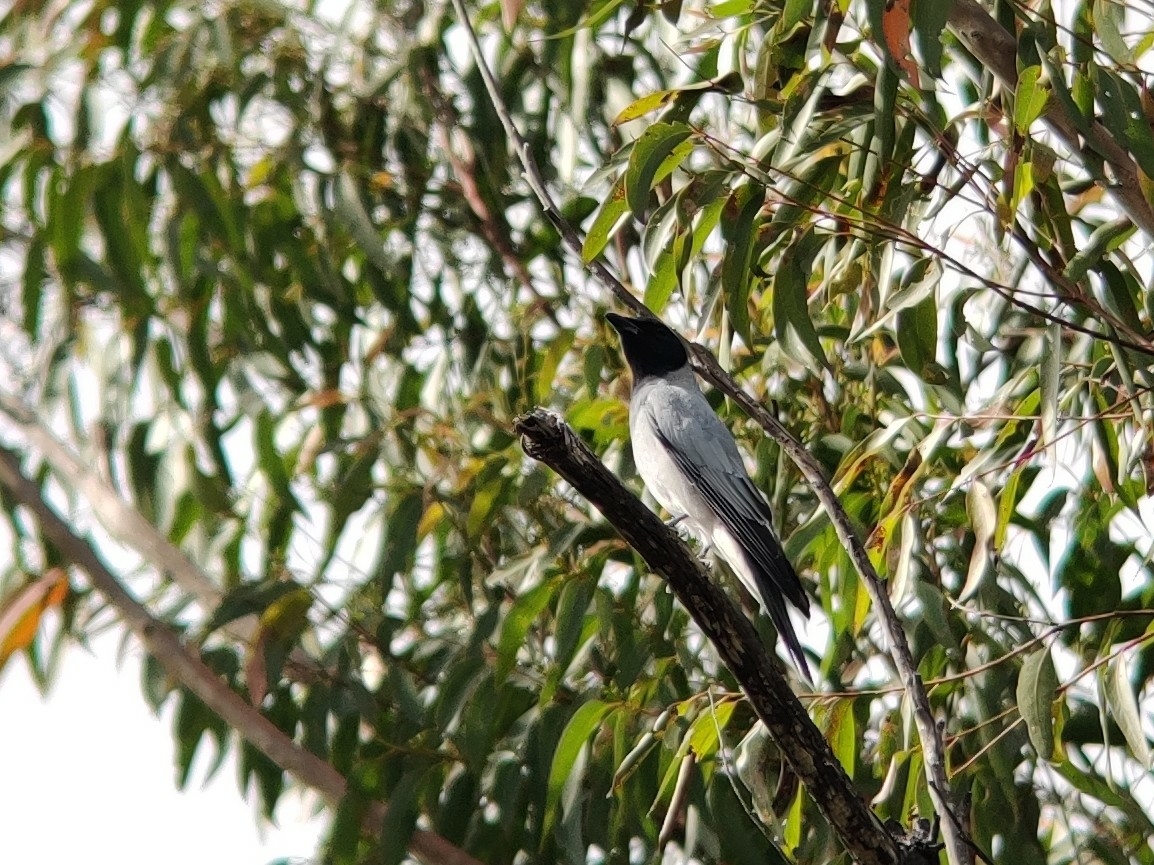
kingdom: Animalia
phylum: Chordata
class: Aves
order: Passeriformes
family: Campephagidae
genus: Coracina
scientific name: Coracina novaehollandiae
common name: Black-faced cuckooshrike
